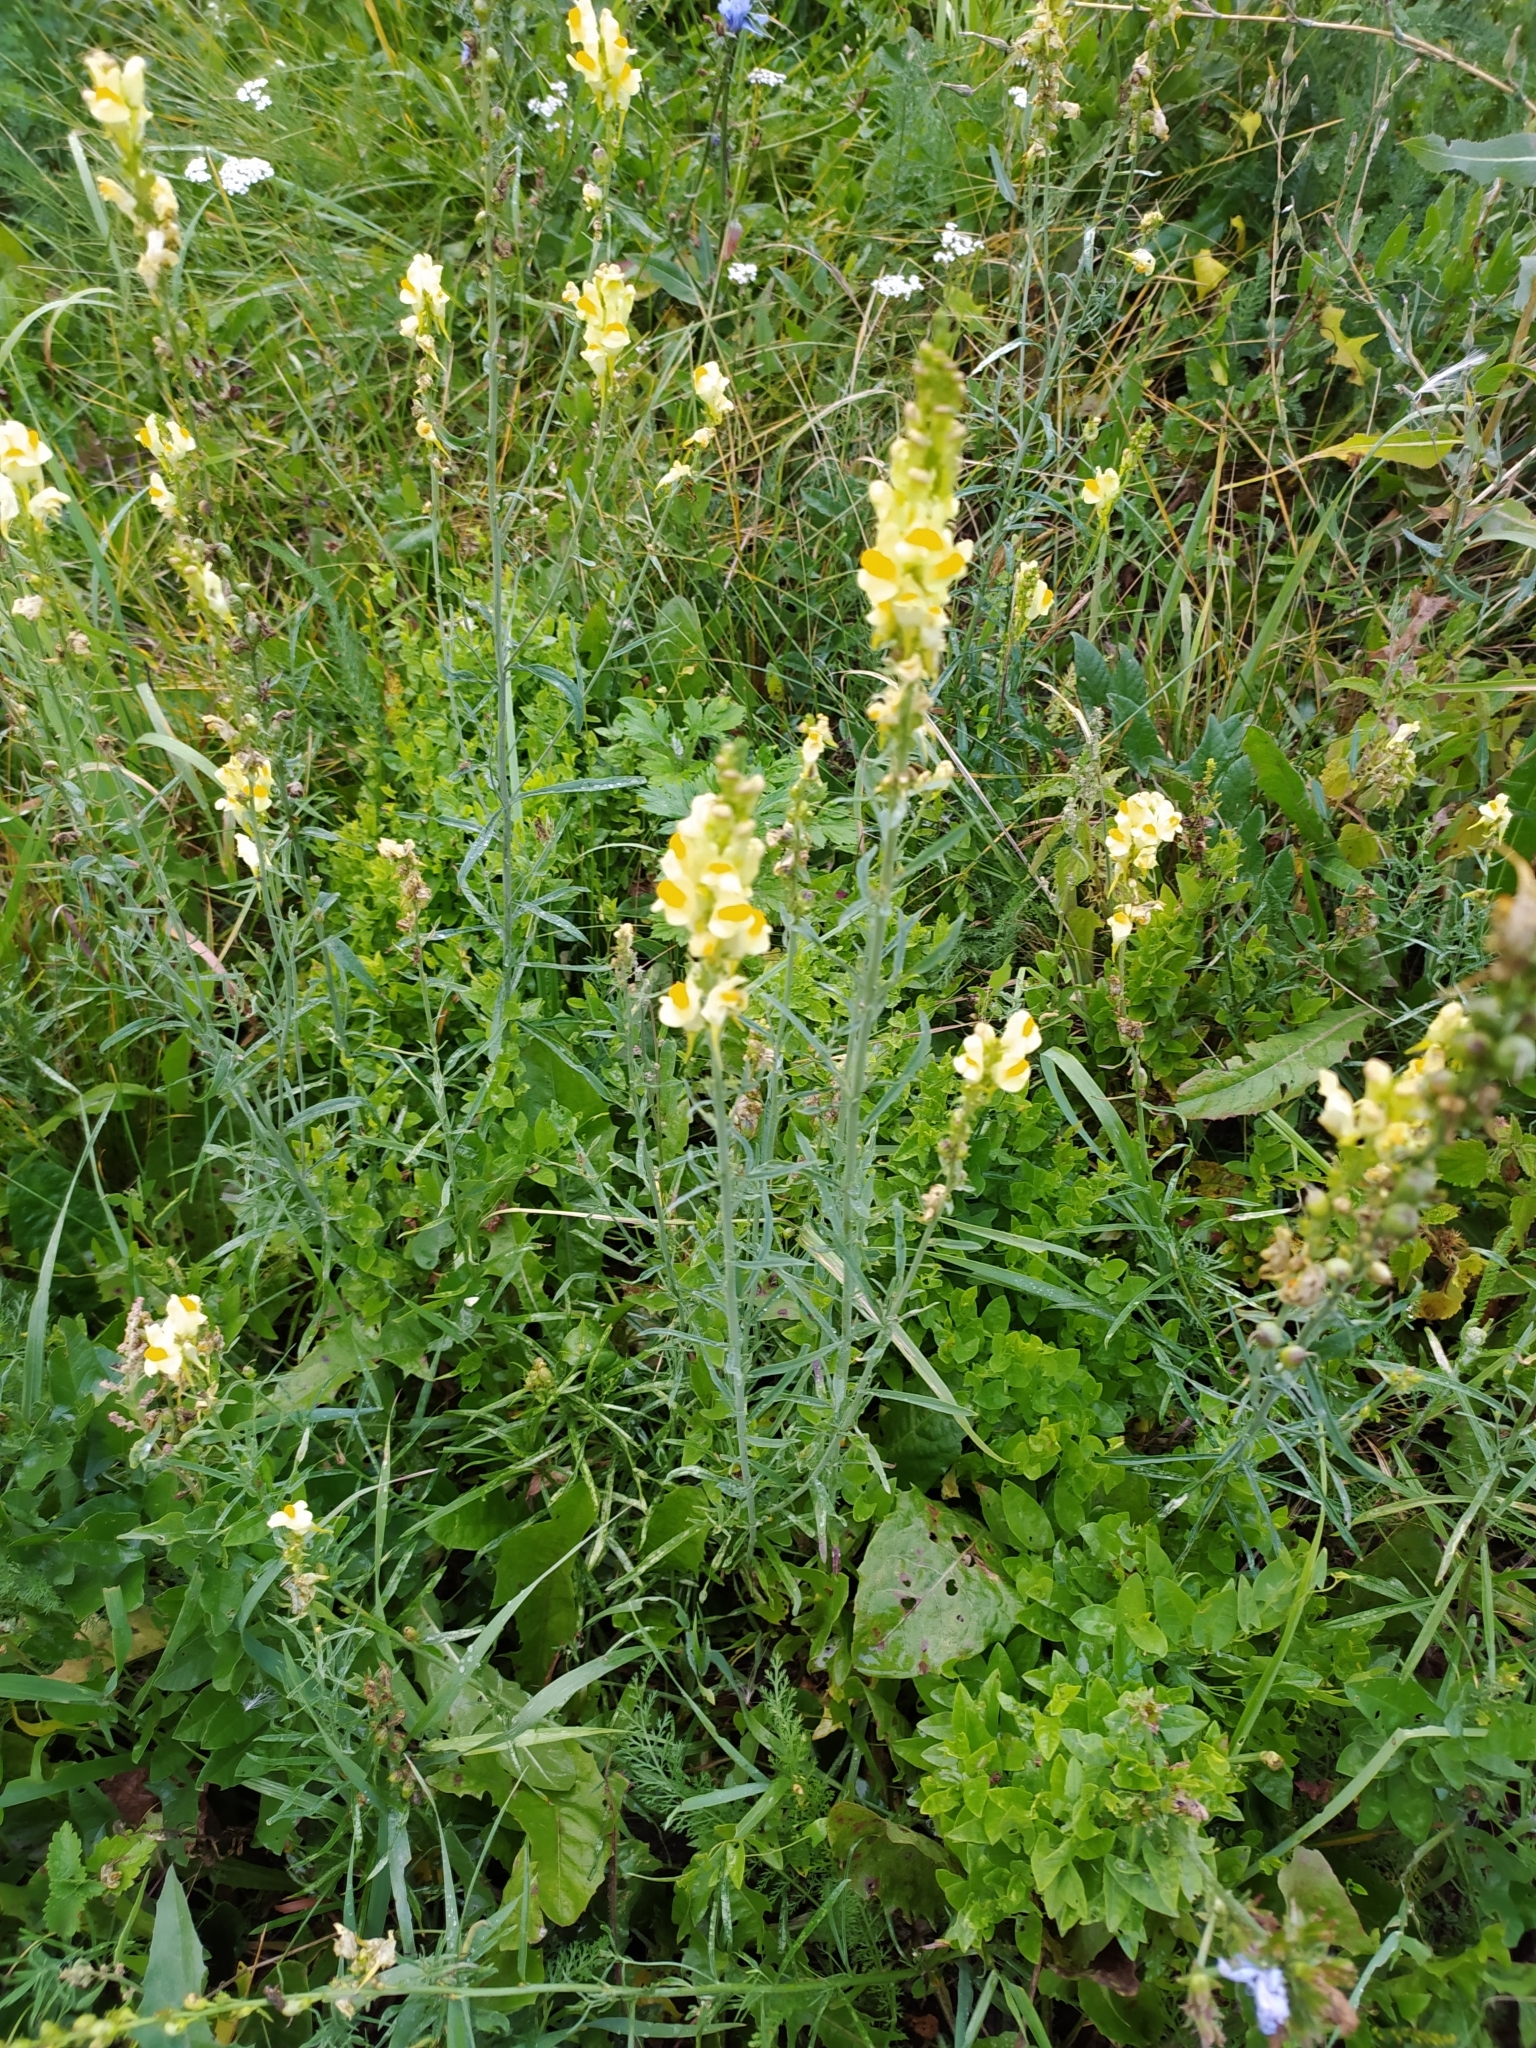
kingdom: Plantae
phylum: Tracheophyta
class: Magnoliopsida
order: Lamiales
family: Plantaginaceae
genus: Linaria
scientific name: Linaria vulgaris
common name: Butter and eggs
